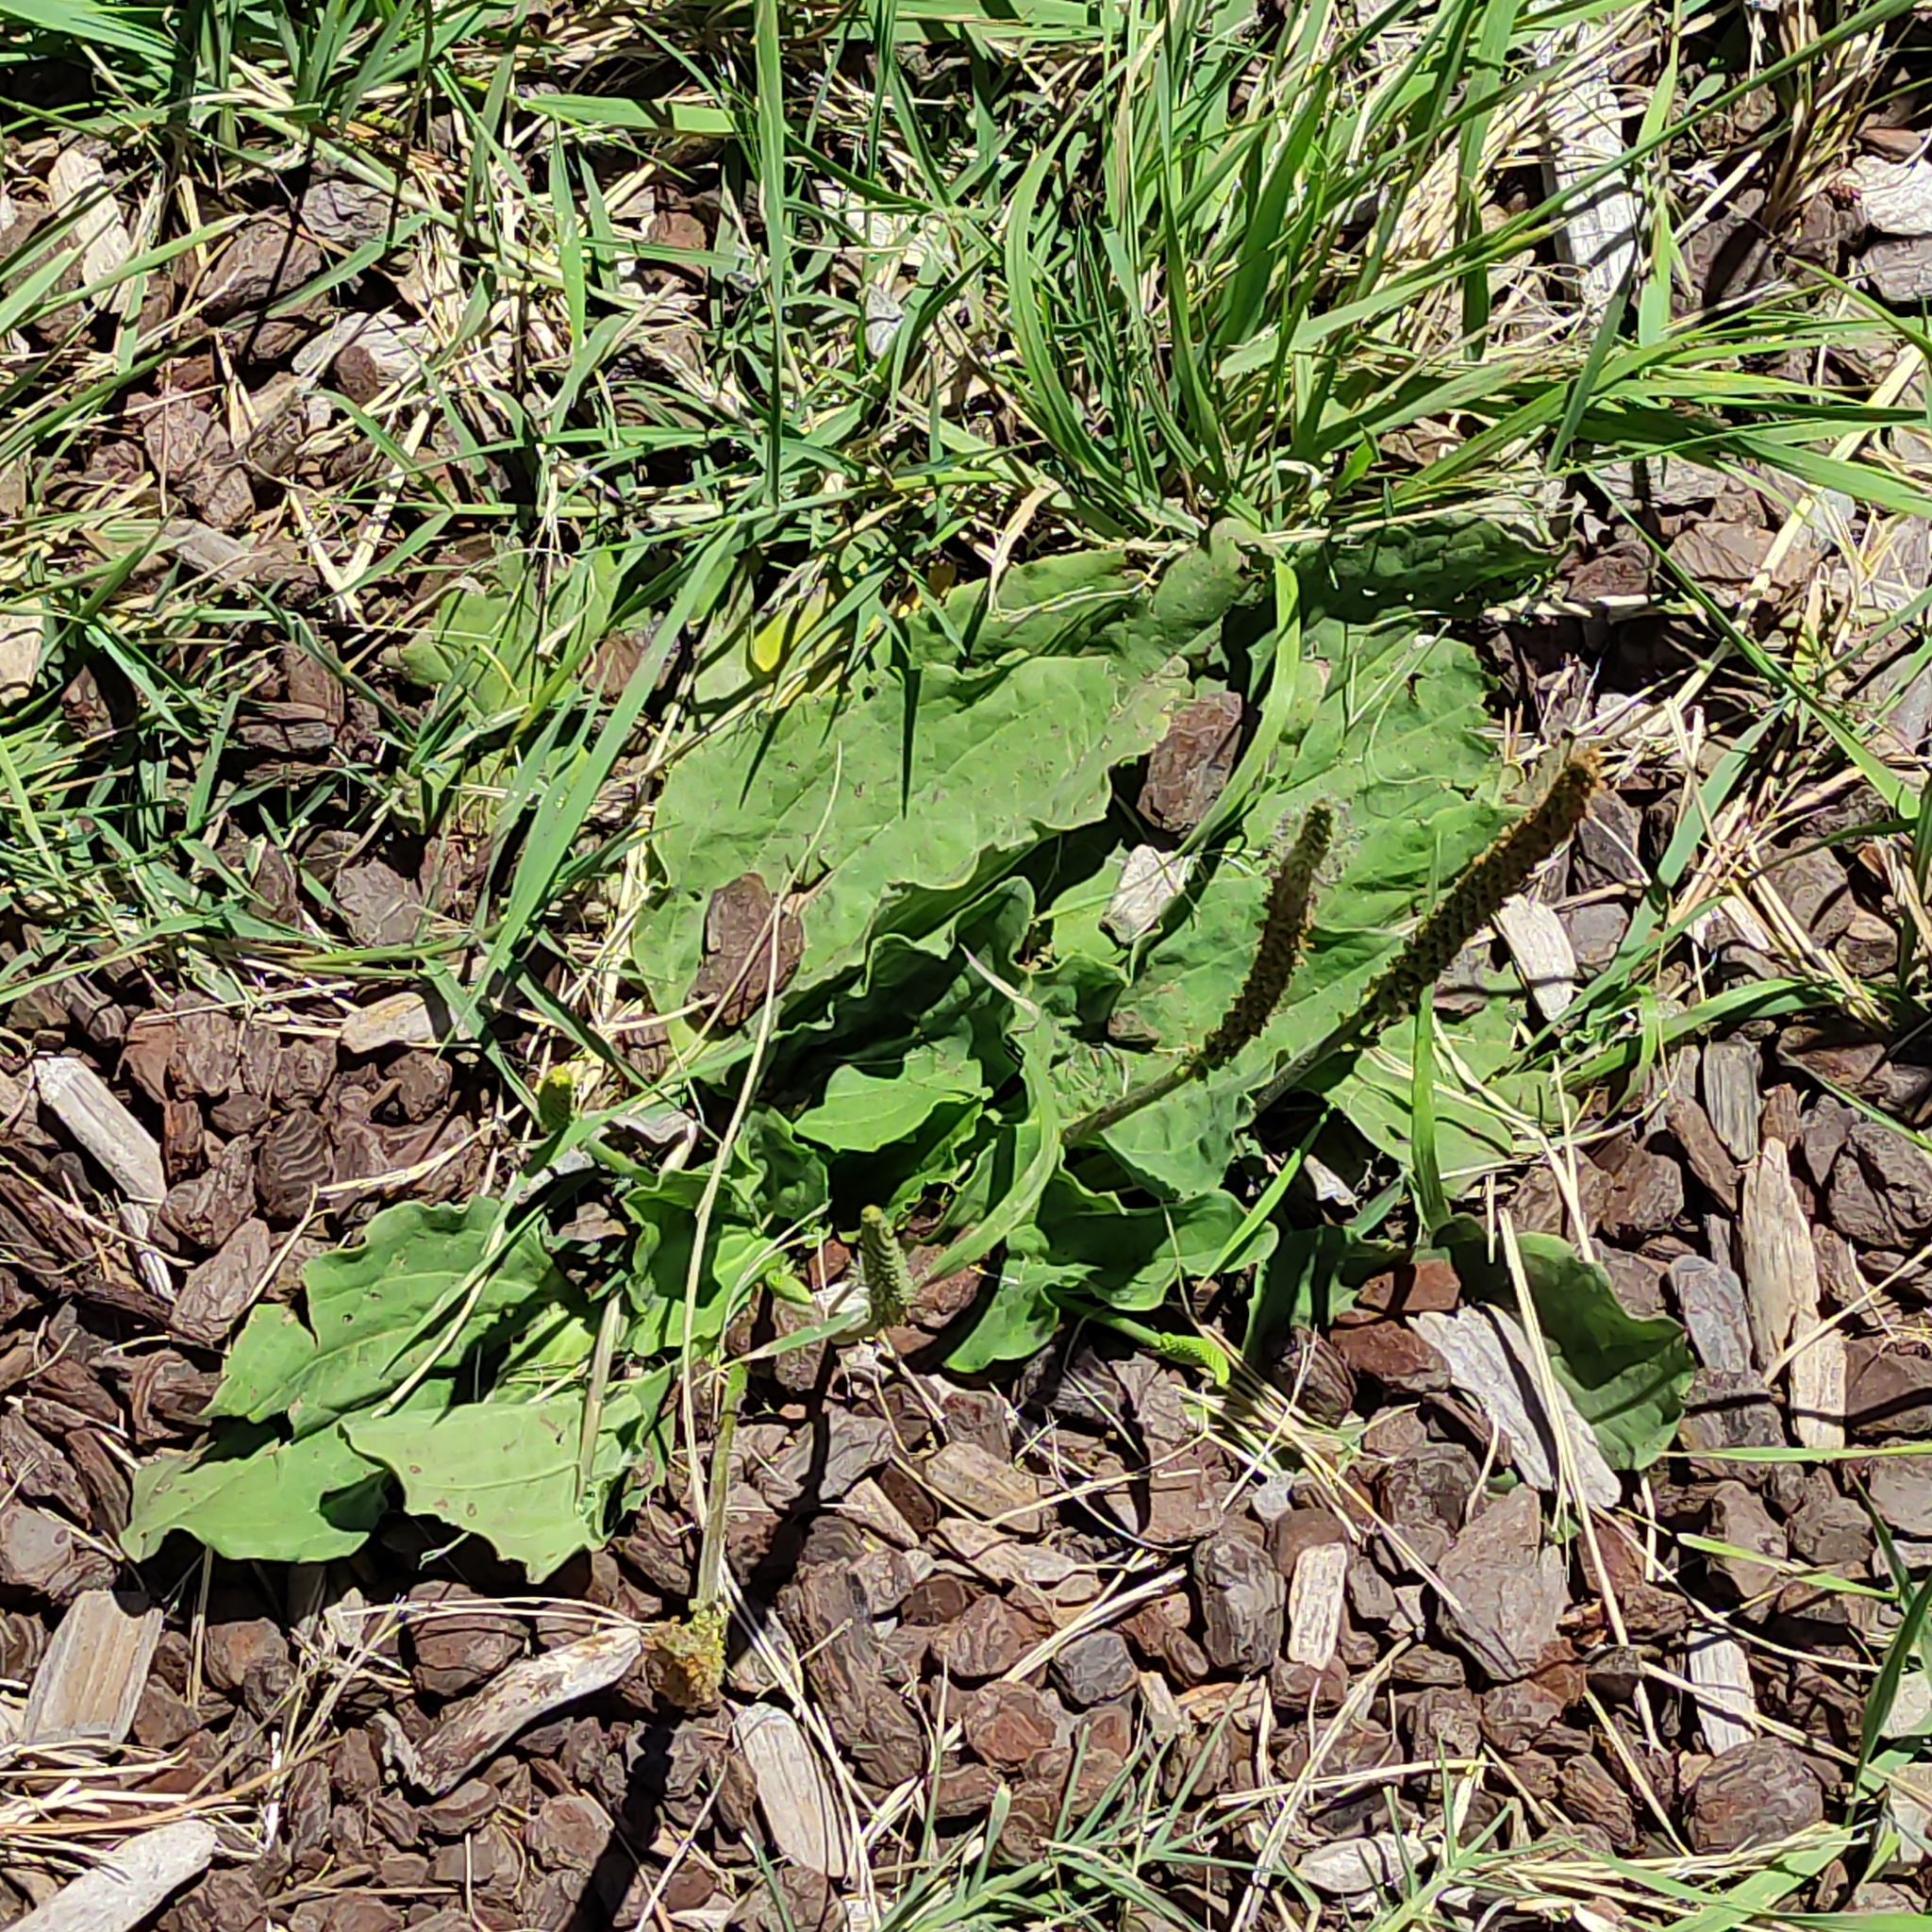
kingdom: Plantae
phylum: Tracheophyta
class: Magnoliopsida
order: Lamiales
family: Plantaginaceae
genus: Plantago
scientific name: Plantago major
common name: Common plantain
